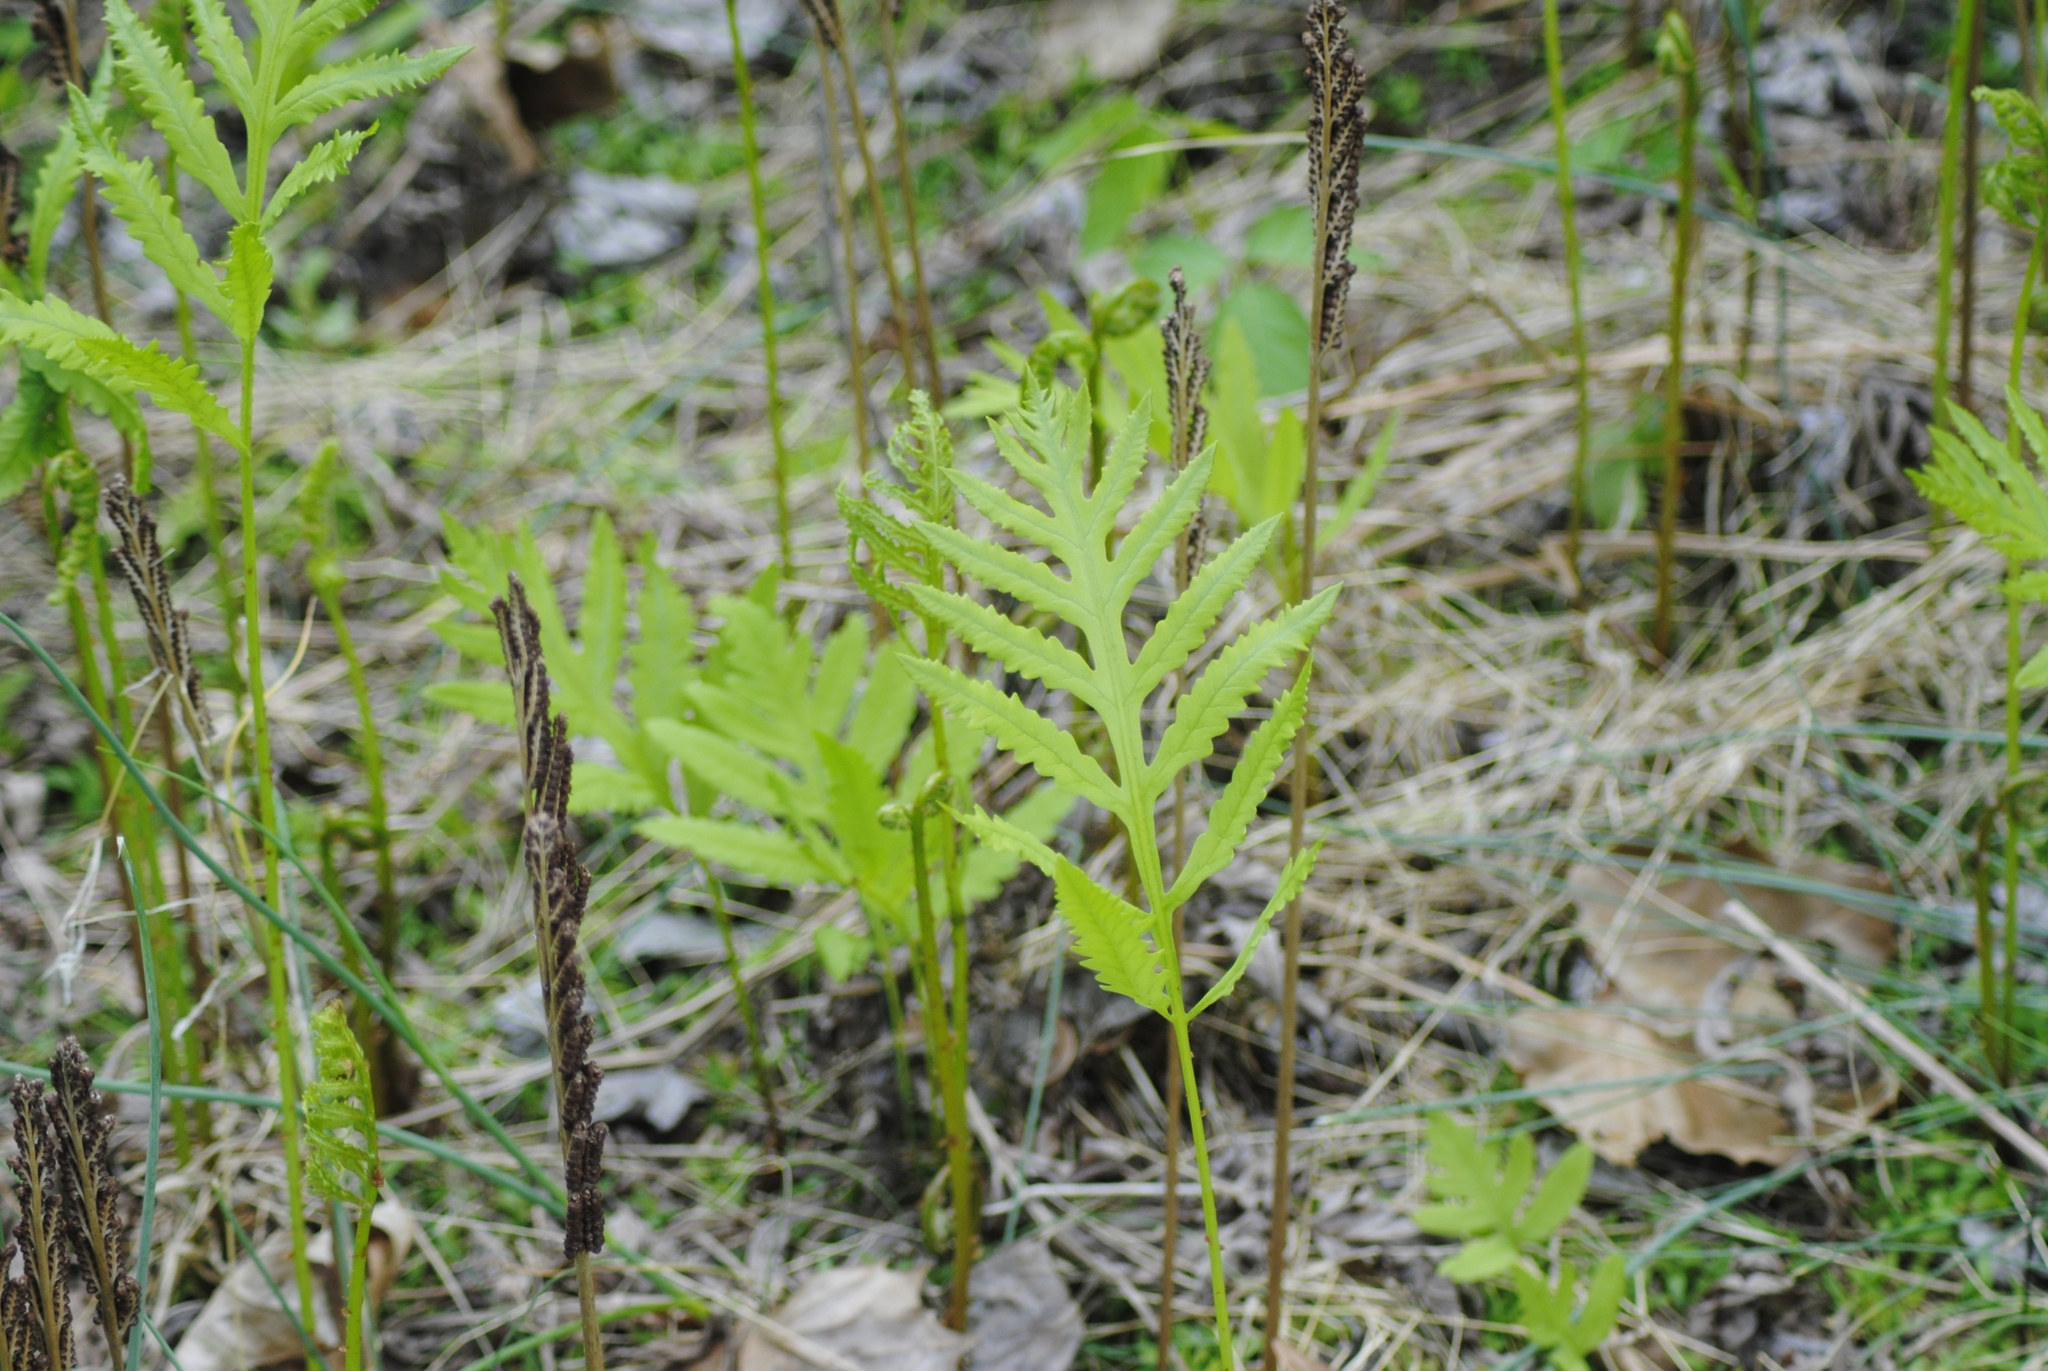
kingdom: Plantae
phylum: Tracheophyta
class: Polypodiopsida
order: Polypodiales
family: Onocleaceae
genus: Onoclea
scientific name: Onoclea sensibilis
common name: Sensitive fern
